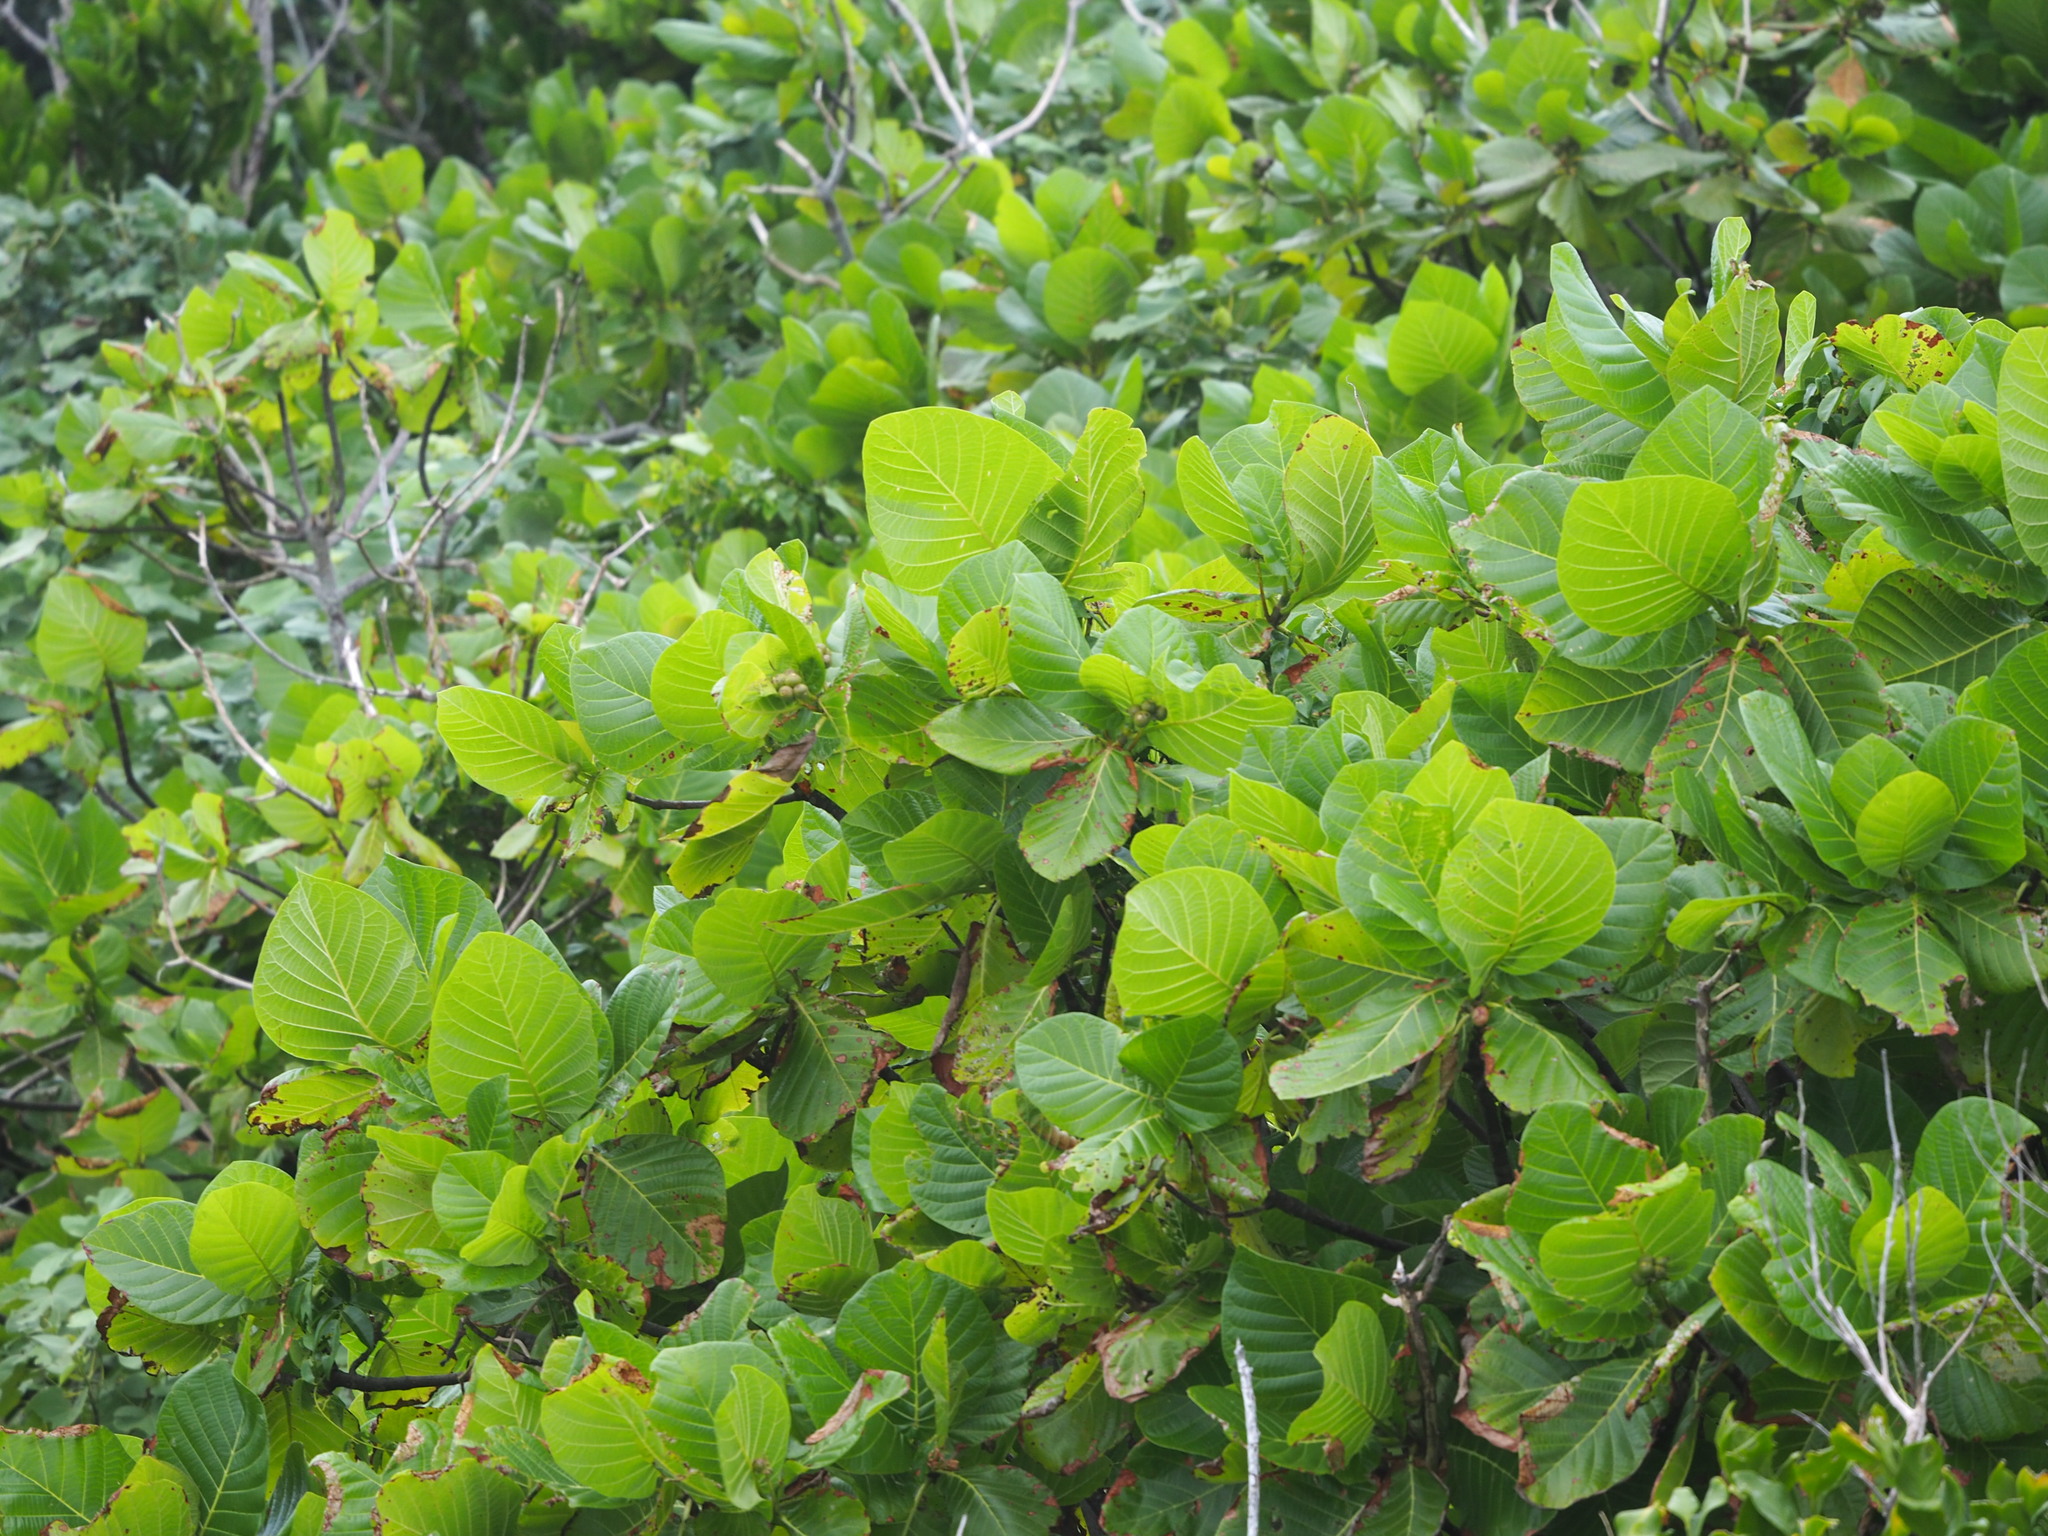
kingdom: Plantae
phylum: Tracheophyta
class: Magnoliopsida
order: Gentianales
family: Rubiaceae
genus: Guettarda
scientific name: Guettarda speciosa
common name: Sea randa
